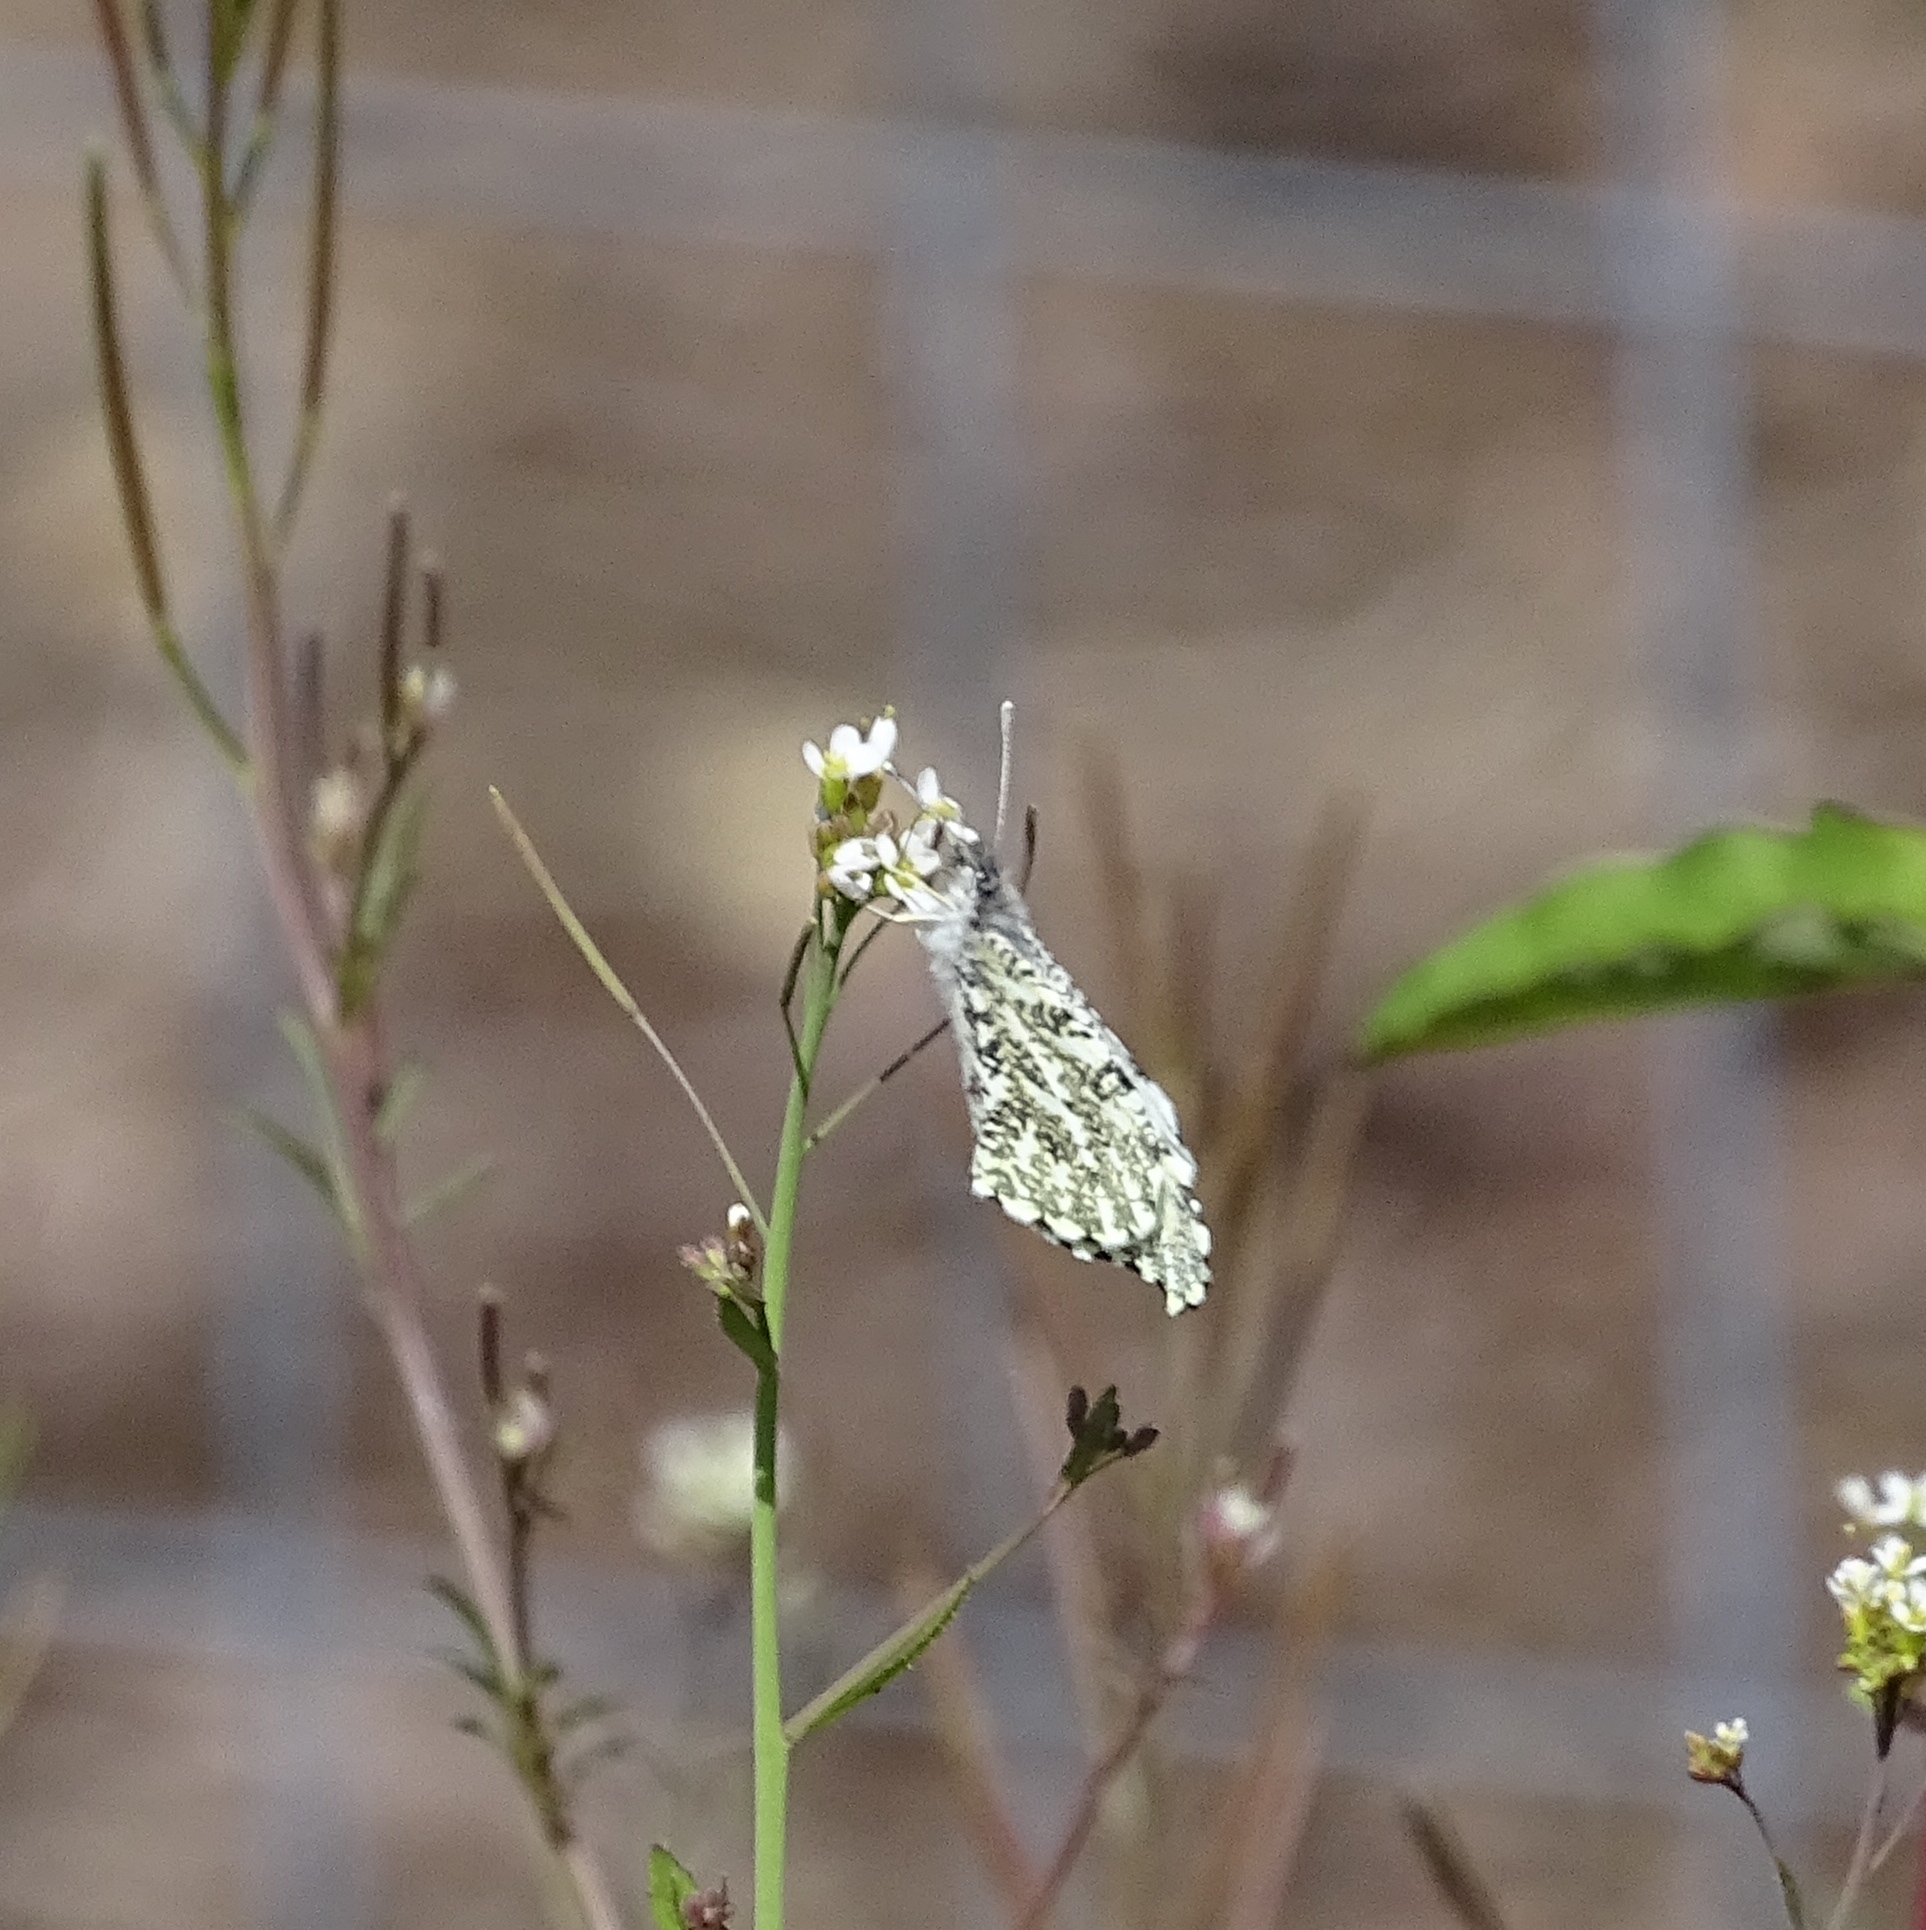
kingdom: Animalia
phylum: Arthropoda
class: Insecta
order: Lepidoptera
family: Pieridae
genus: Anthocharis
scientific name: Anthocharis midea
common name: Falcate orangetip
